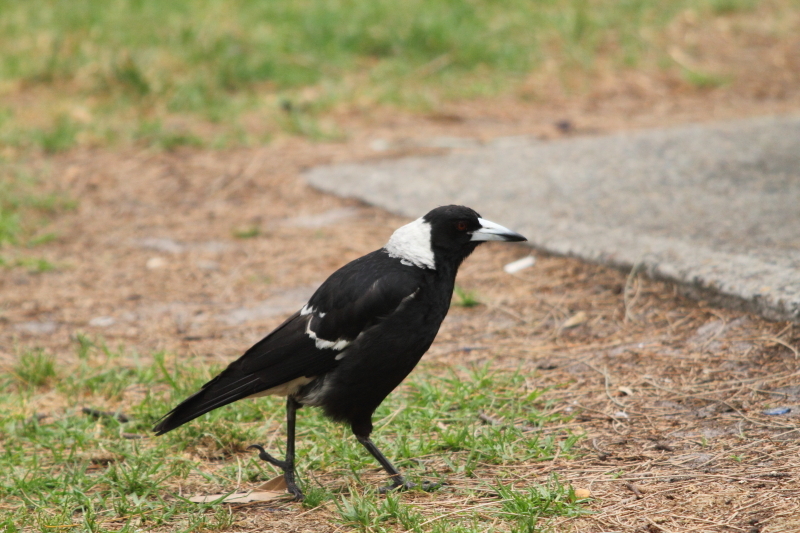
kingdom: Animalia
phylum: Chordata
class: Aves
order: Passeriformes
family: Cracticidae
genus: Gymnorhina
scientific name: Gymnorhina tibicen
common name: Australian magpie
